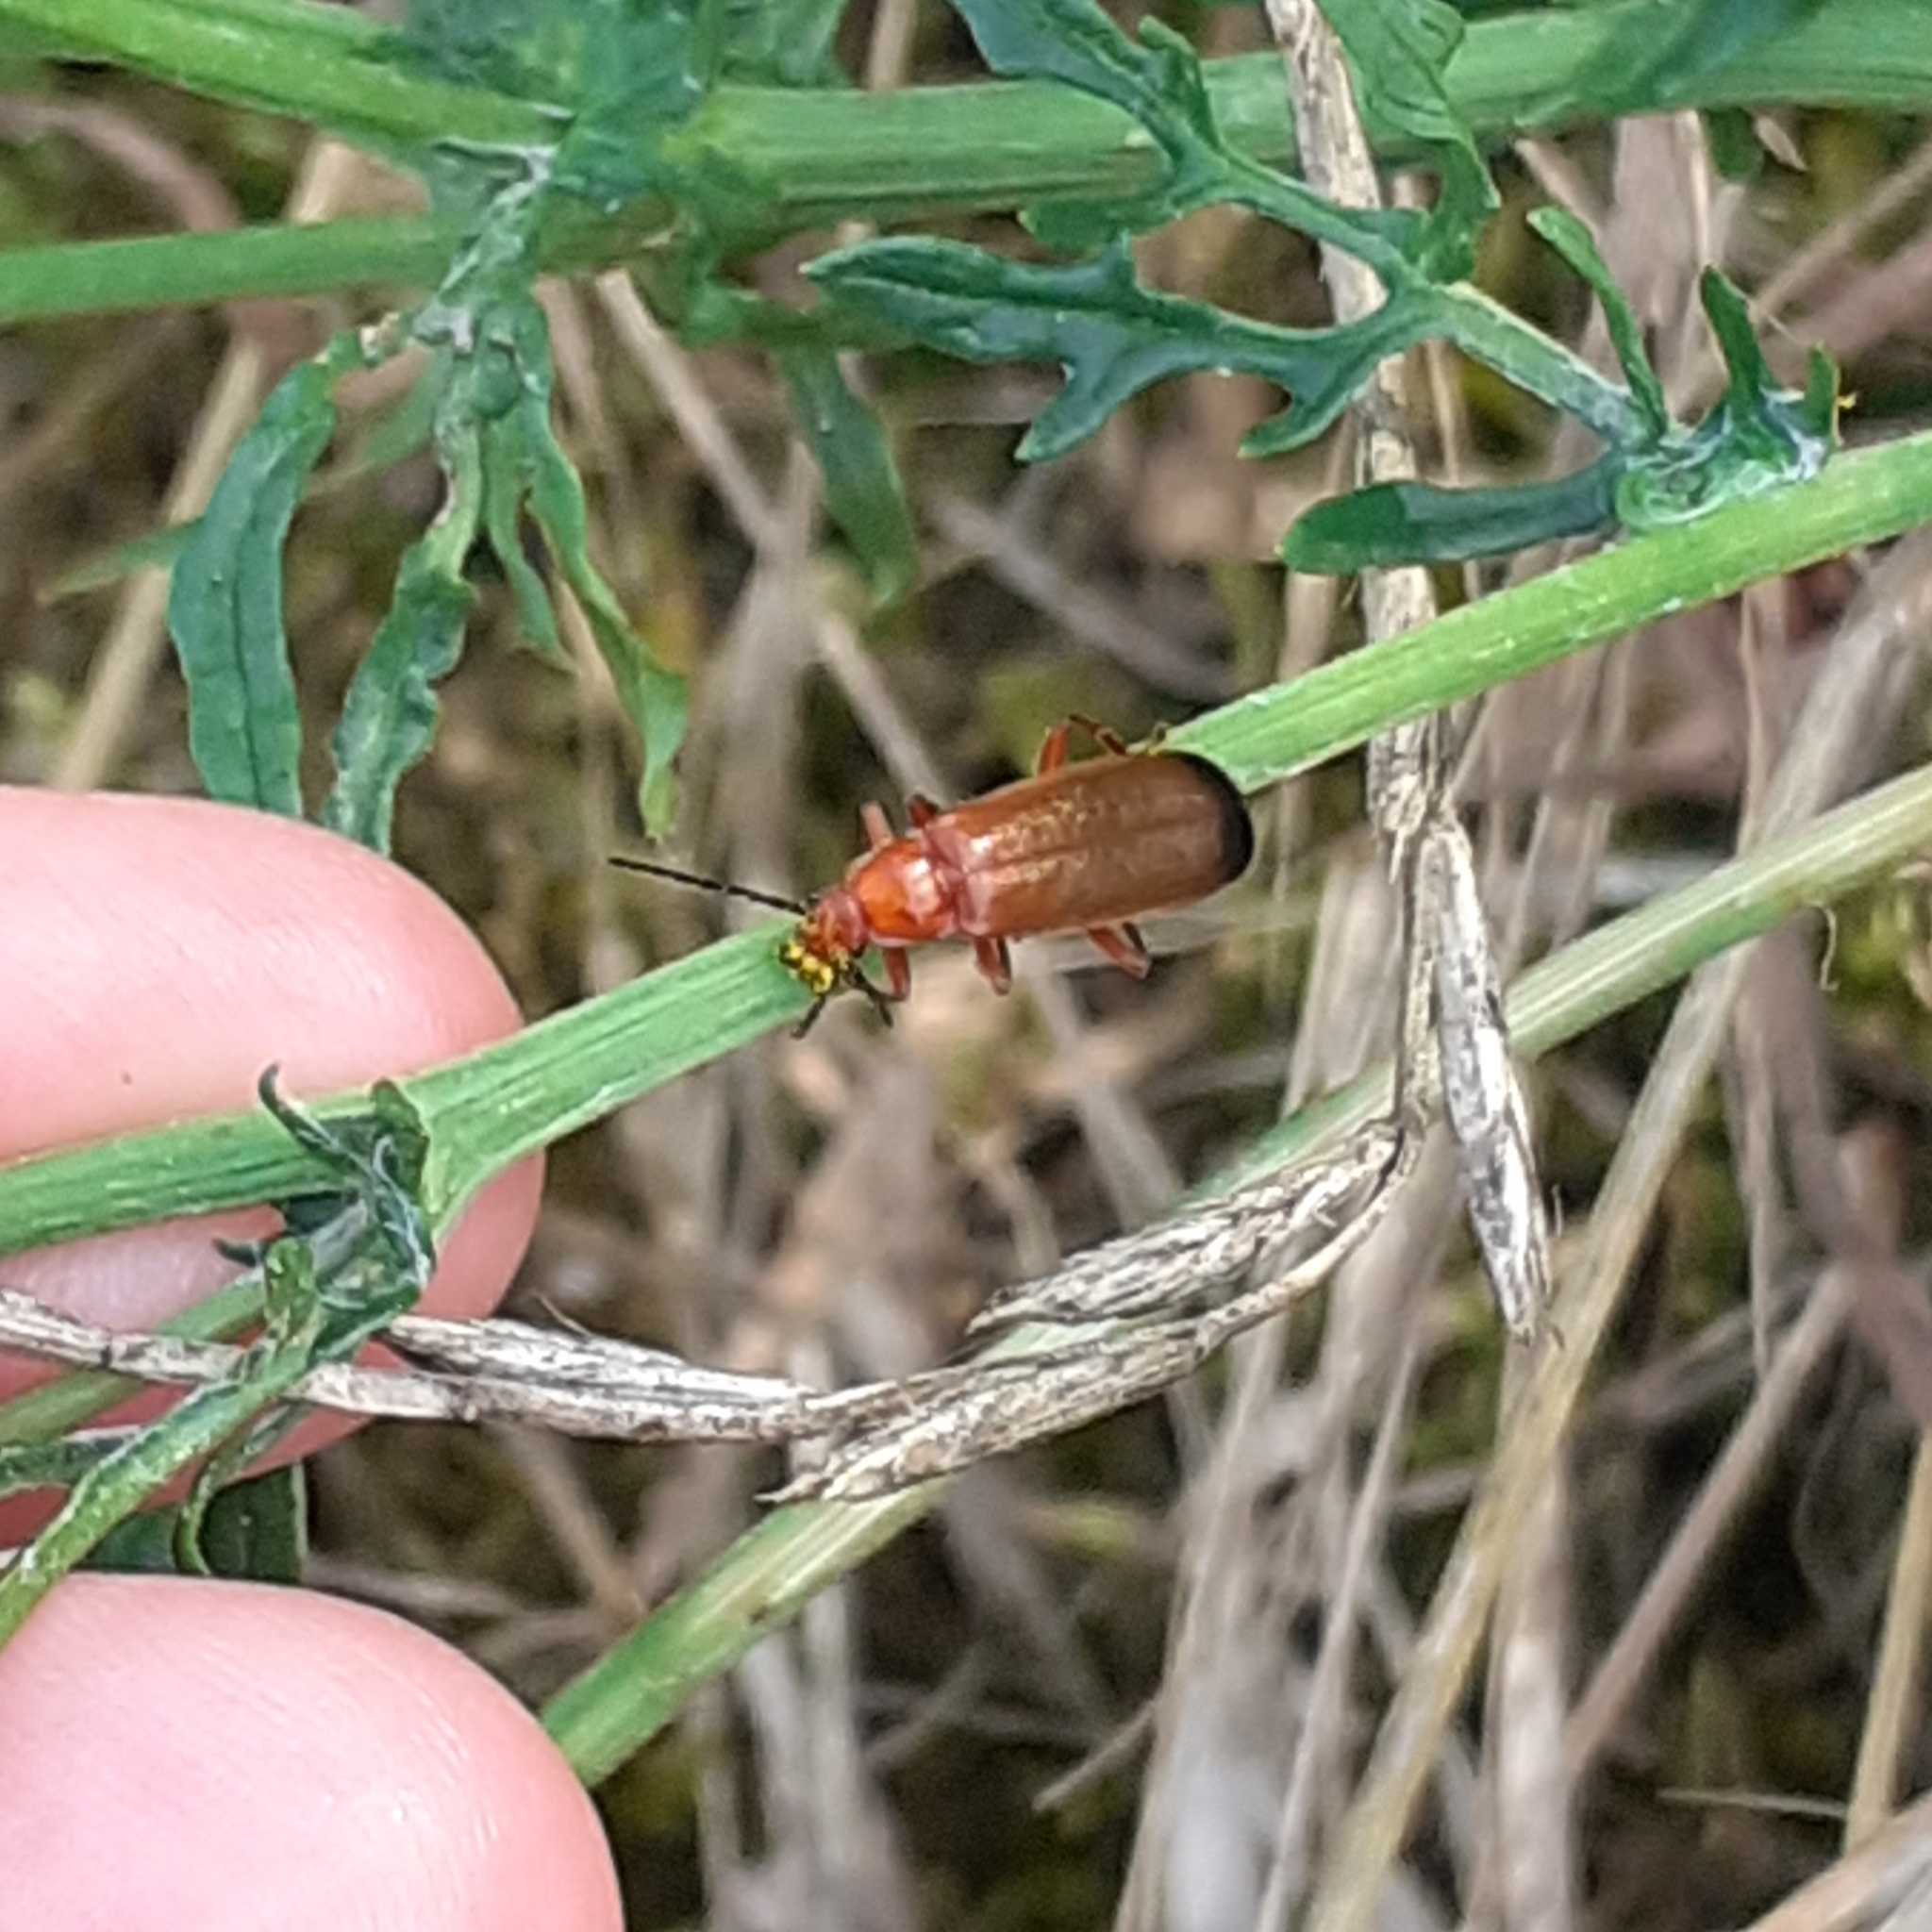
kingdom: Animalia
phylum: Arthropoda
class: Insecta
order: Coleoptera
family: Cantharidae
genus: Rhagonycha
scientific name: Rhagonycha fulva
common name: Common red soldier beetle
